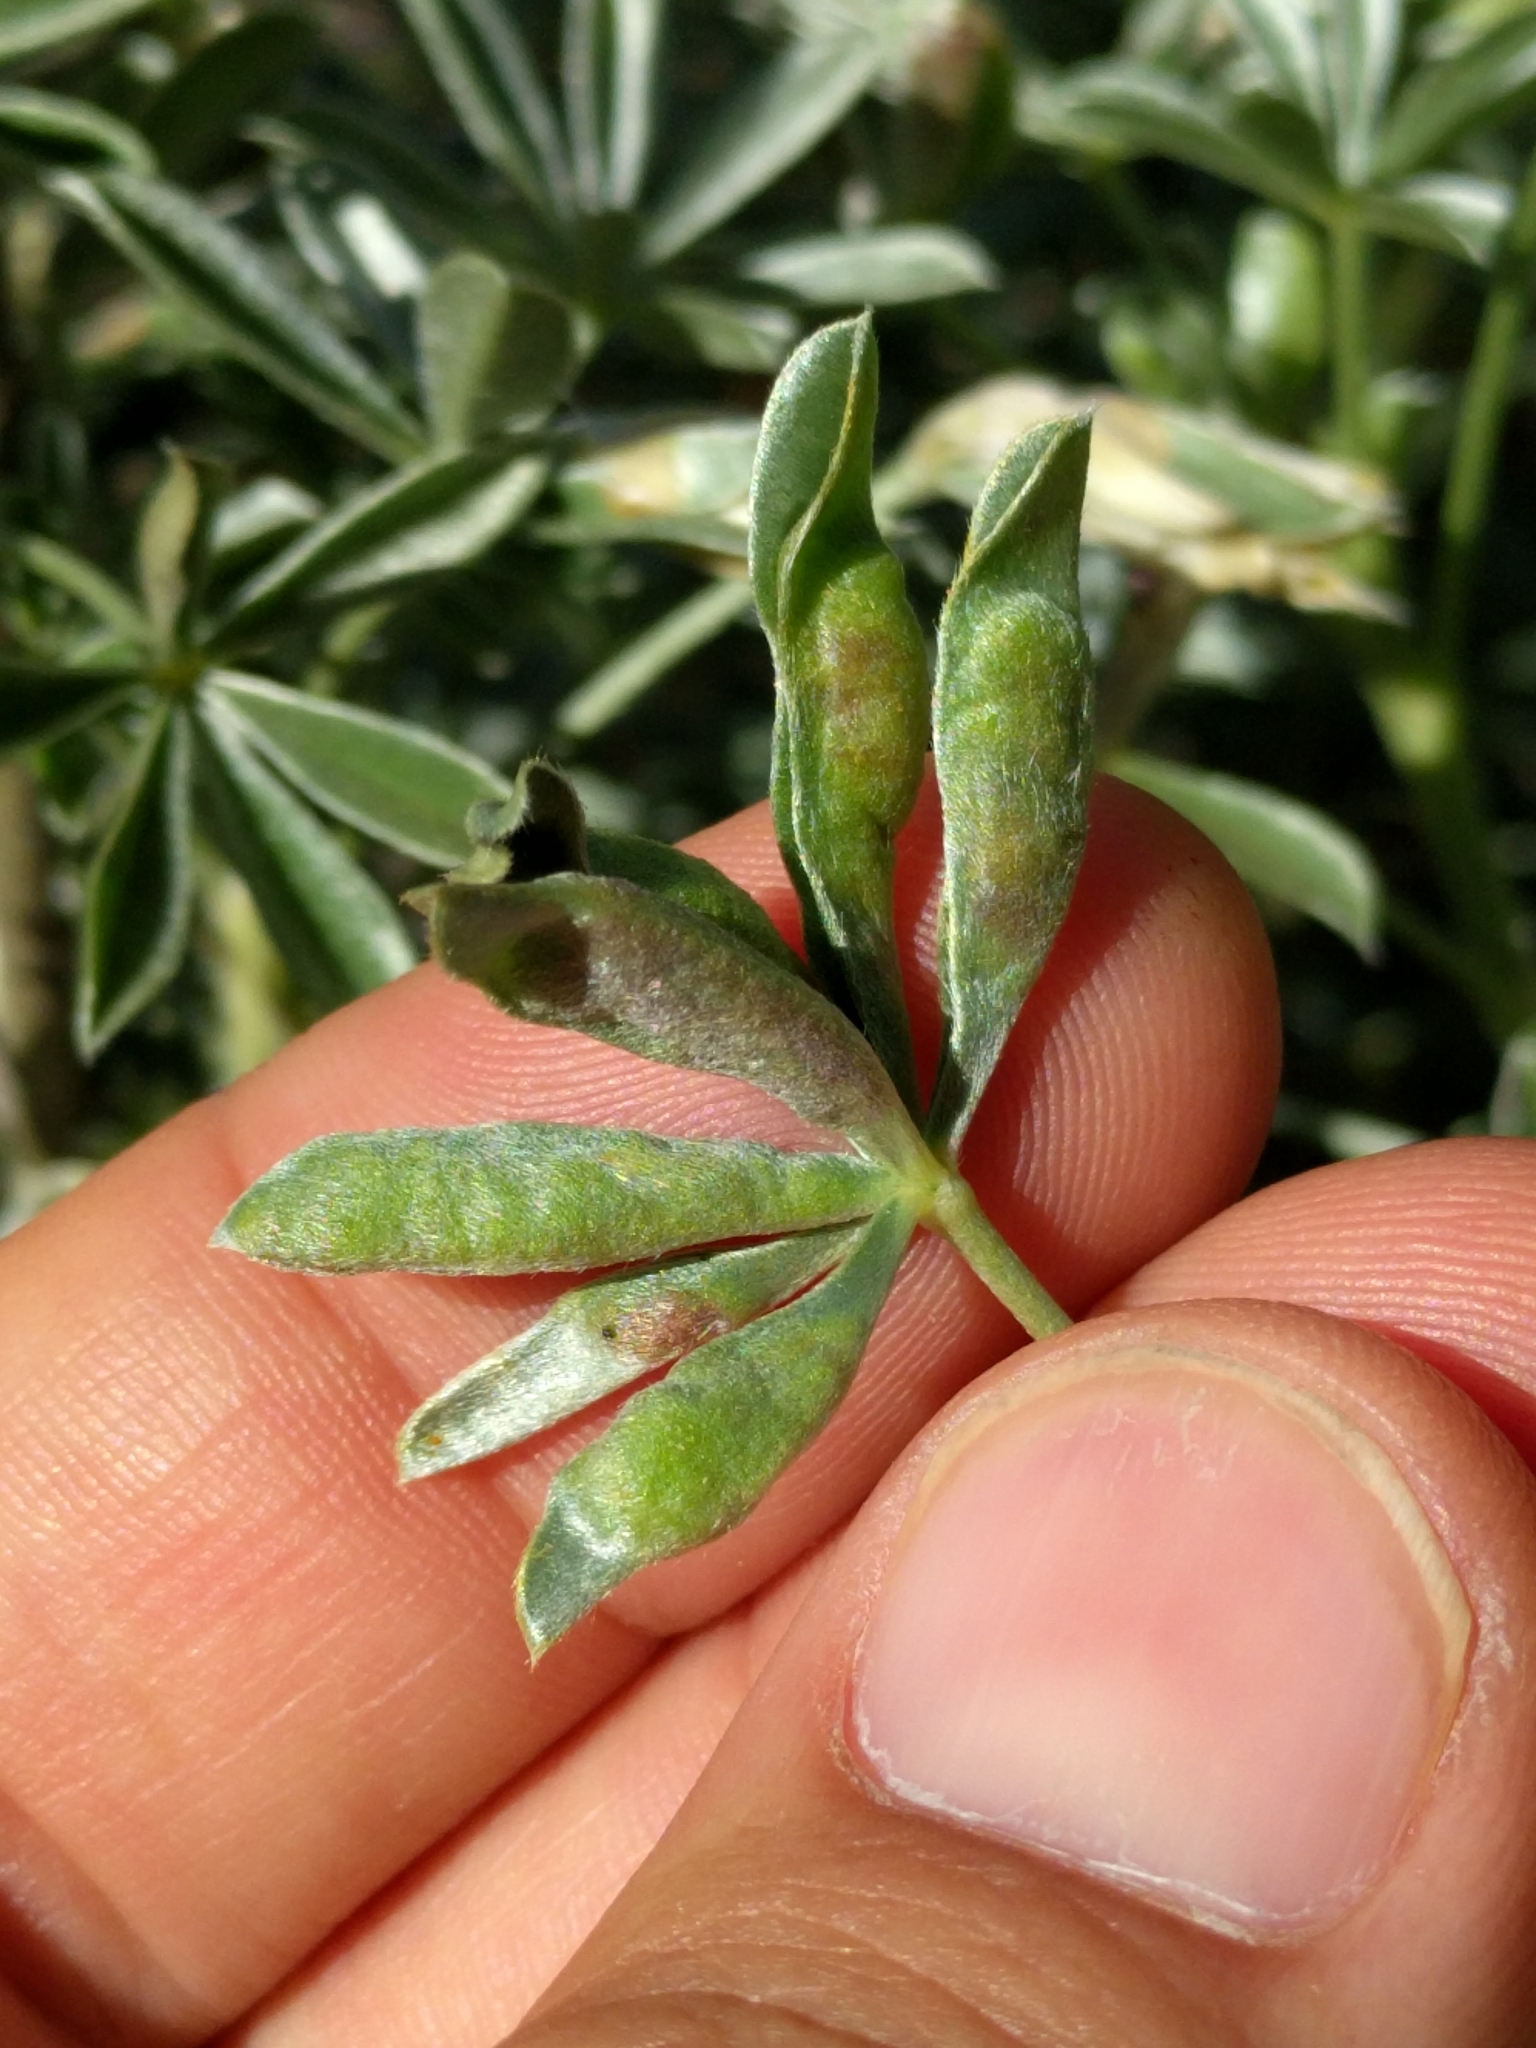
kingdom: Animalia
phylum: Arthropoda
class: Insecta
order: Diptera
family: Cecidomyiidae
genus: Dasineura
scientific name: Dasineura lupinorum
